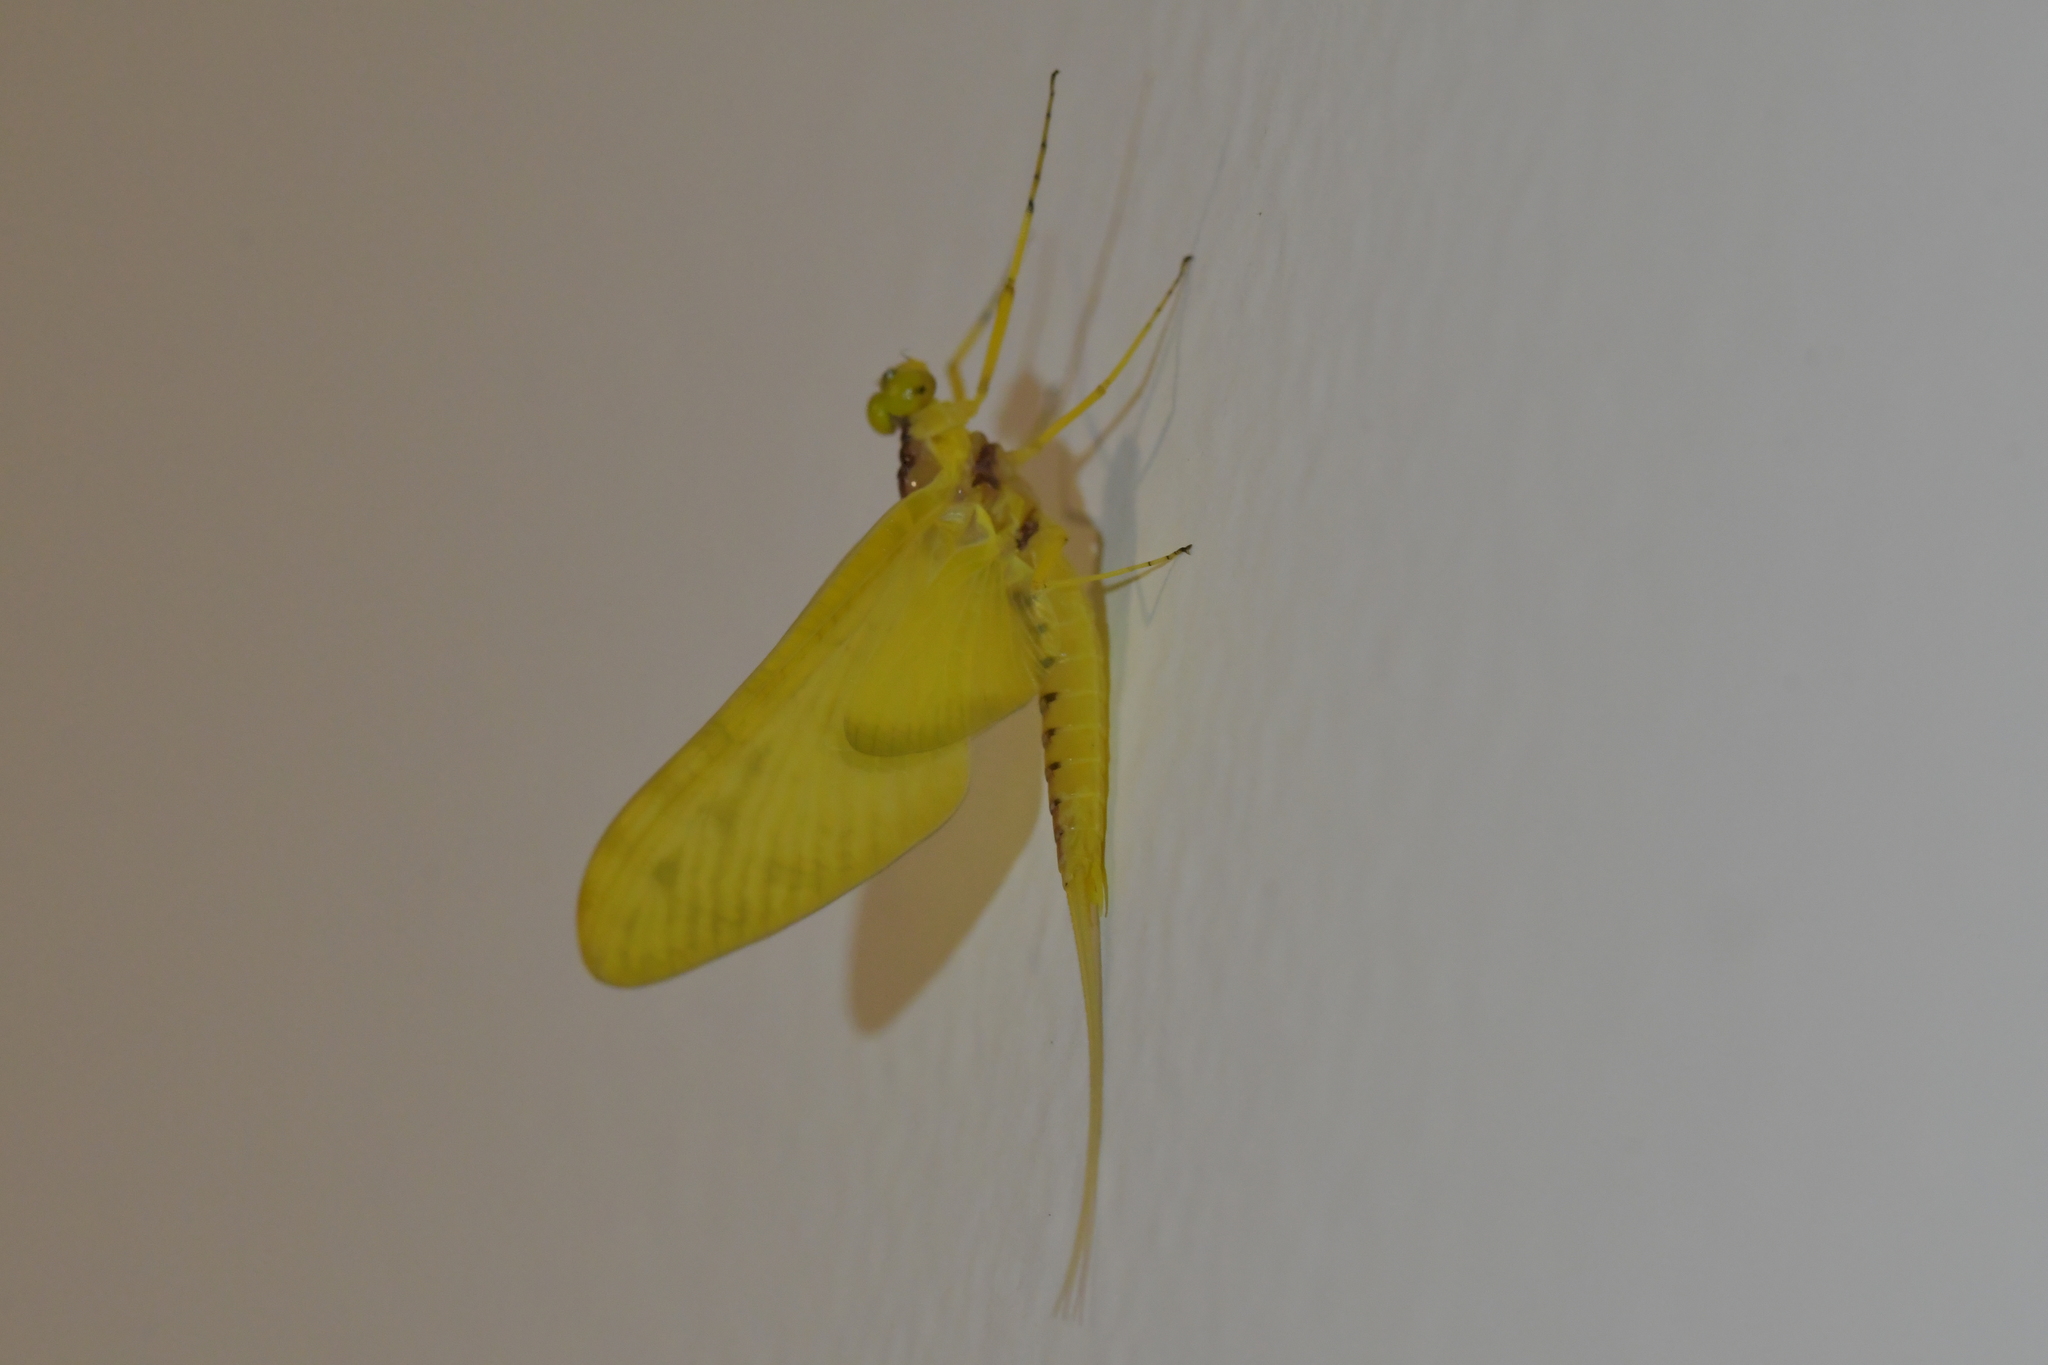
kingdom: Animalia
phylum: Arthropoda
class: Insecta
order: Ephemeroptera
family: Ameletopsidae
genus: Ameletopsis
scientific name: Ameletopsis perscitus
